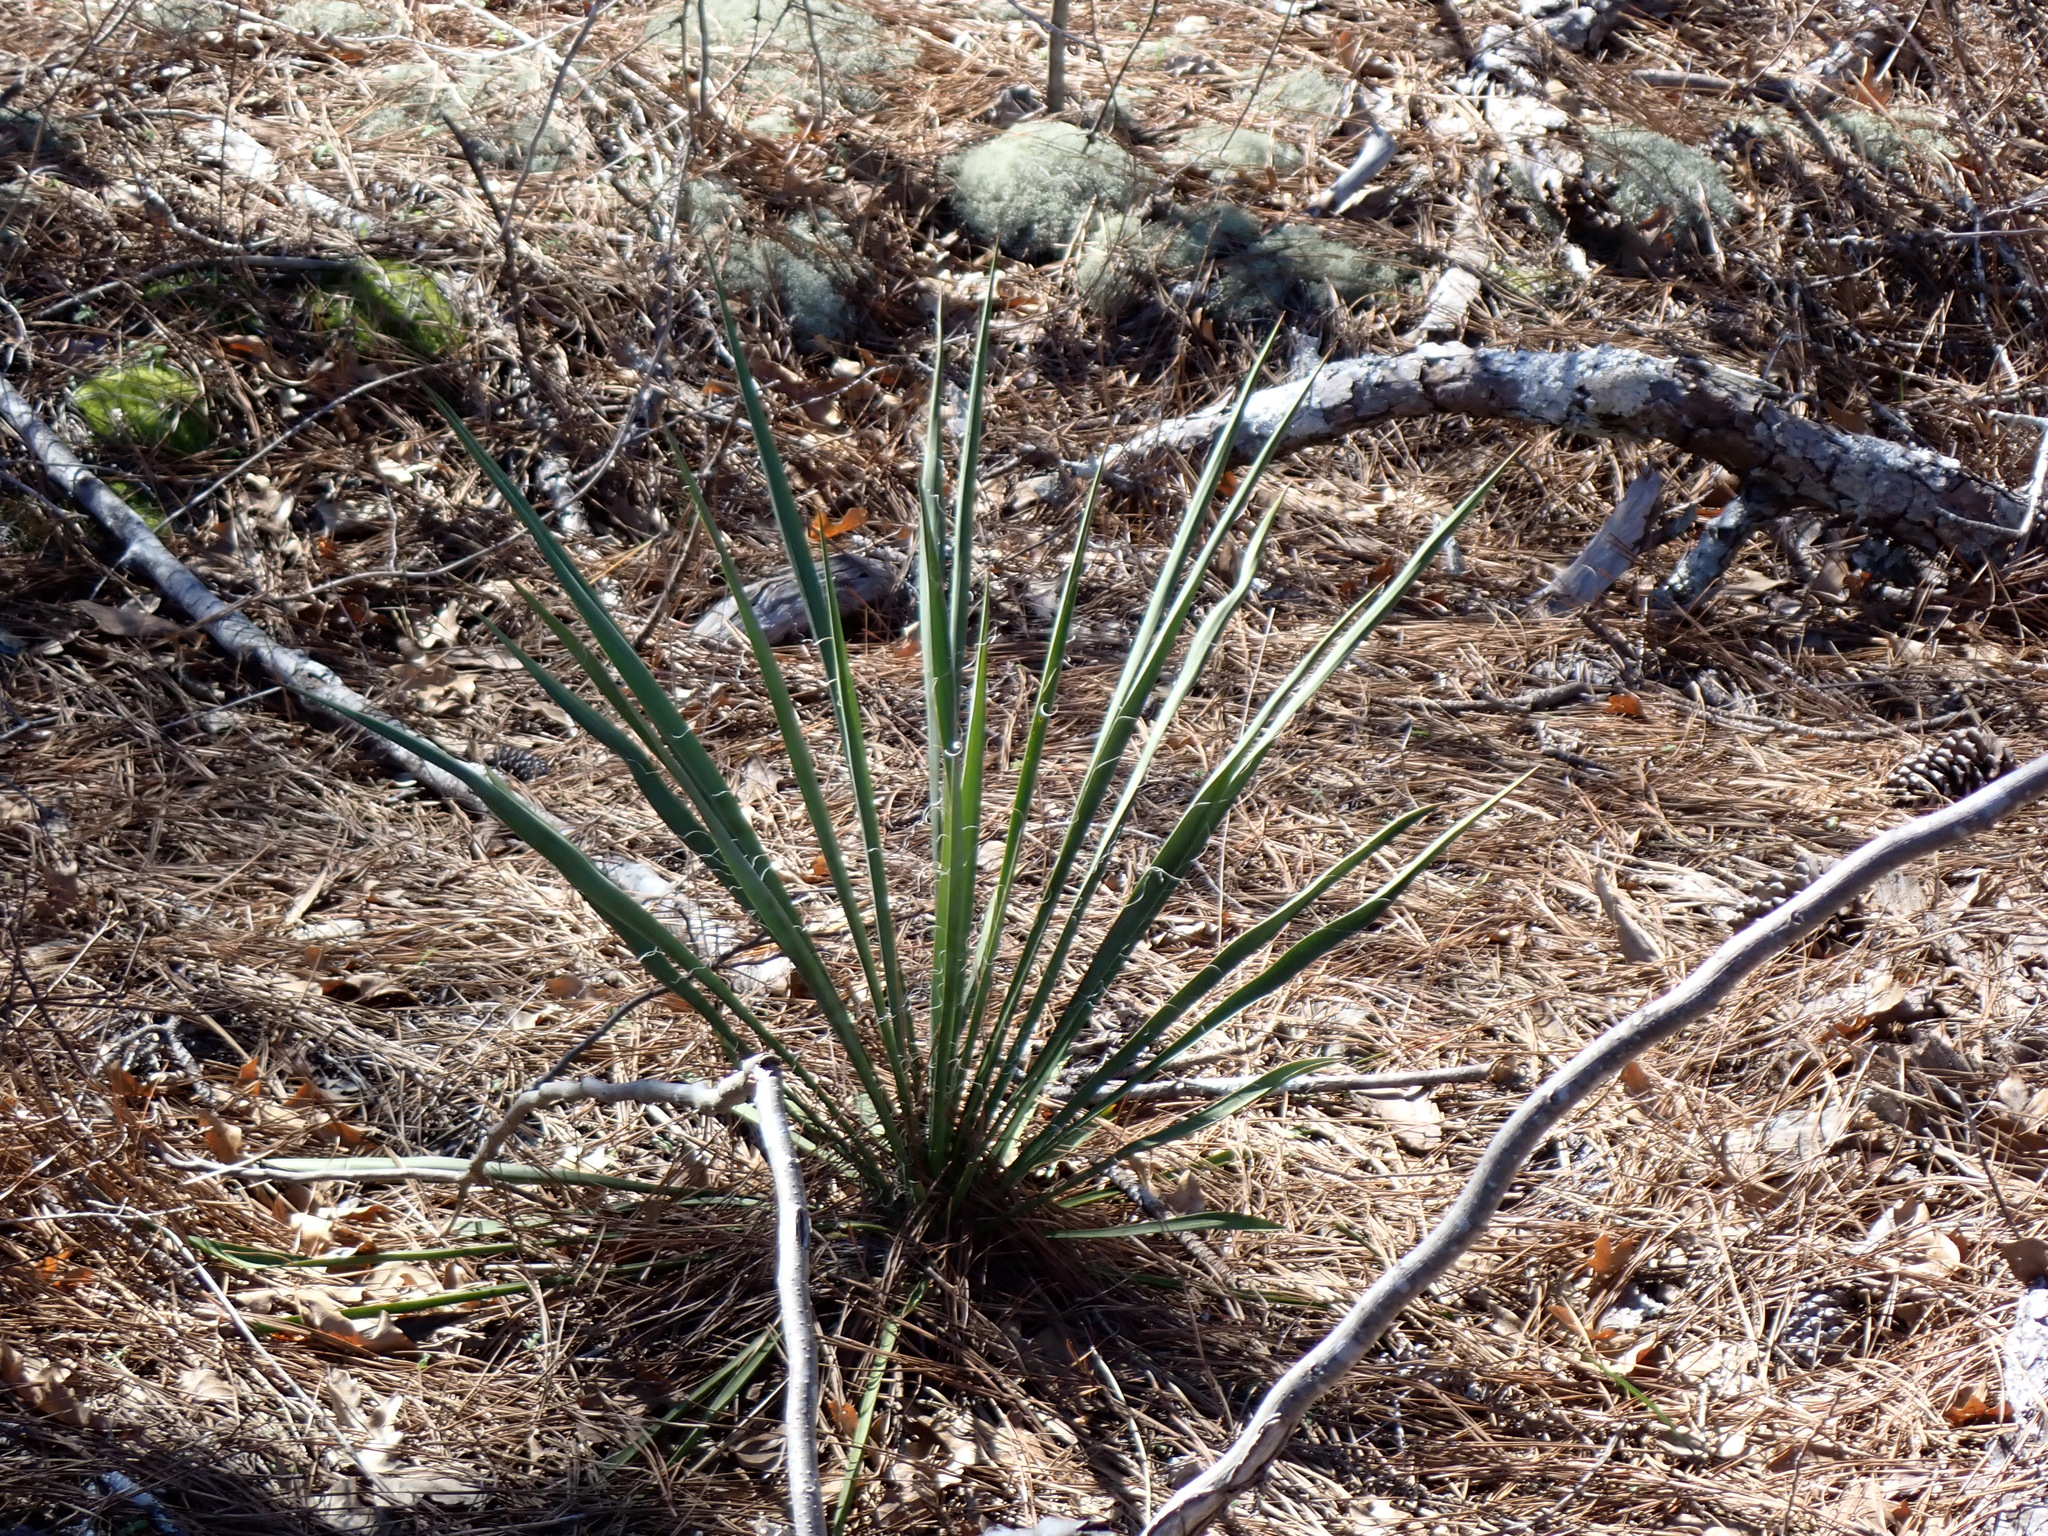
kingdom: Plantae
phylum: Tracheophyta
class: Liliopsida
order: Asparagales
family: Asparagaceae
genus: Yucca
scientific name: Yucca filamentosa
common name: Adam's-needle
